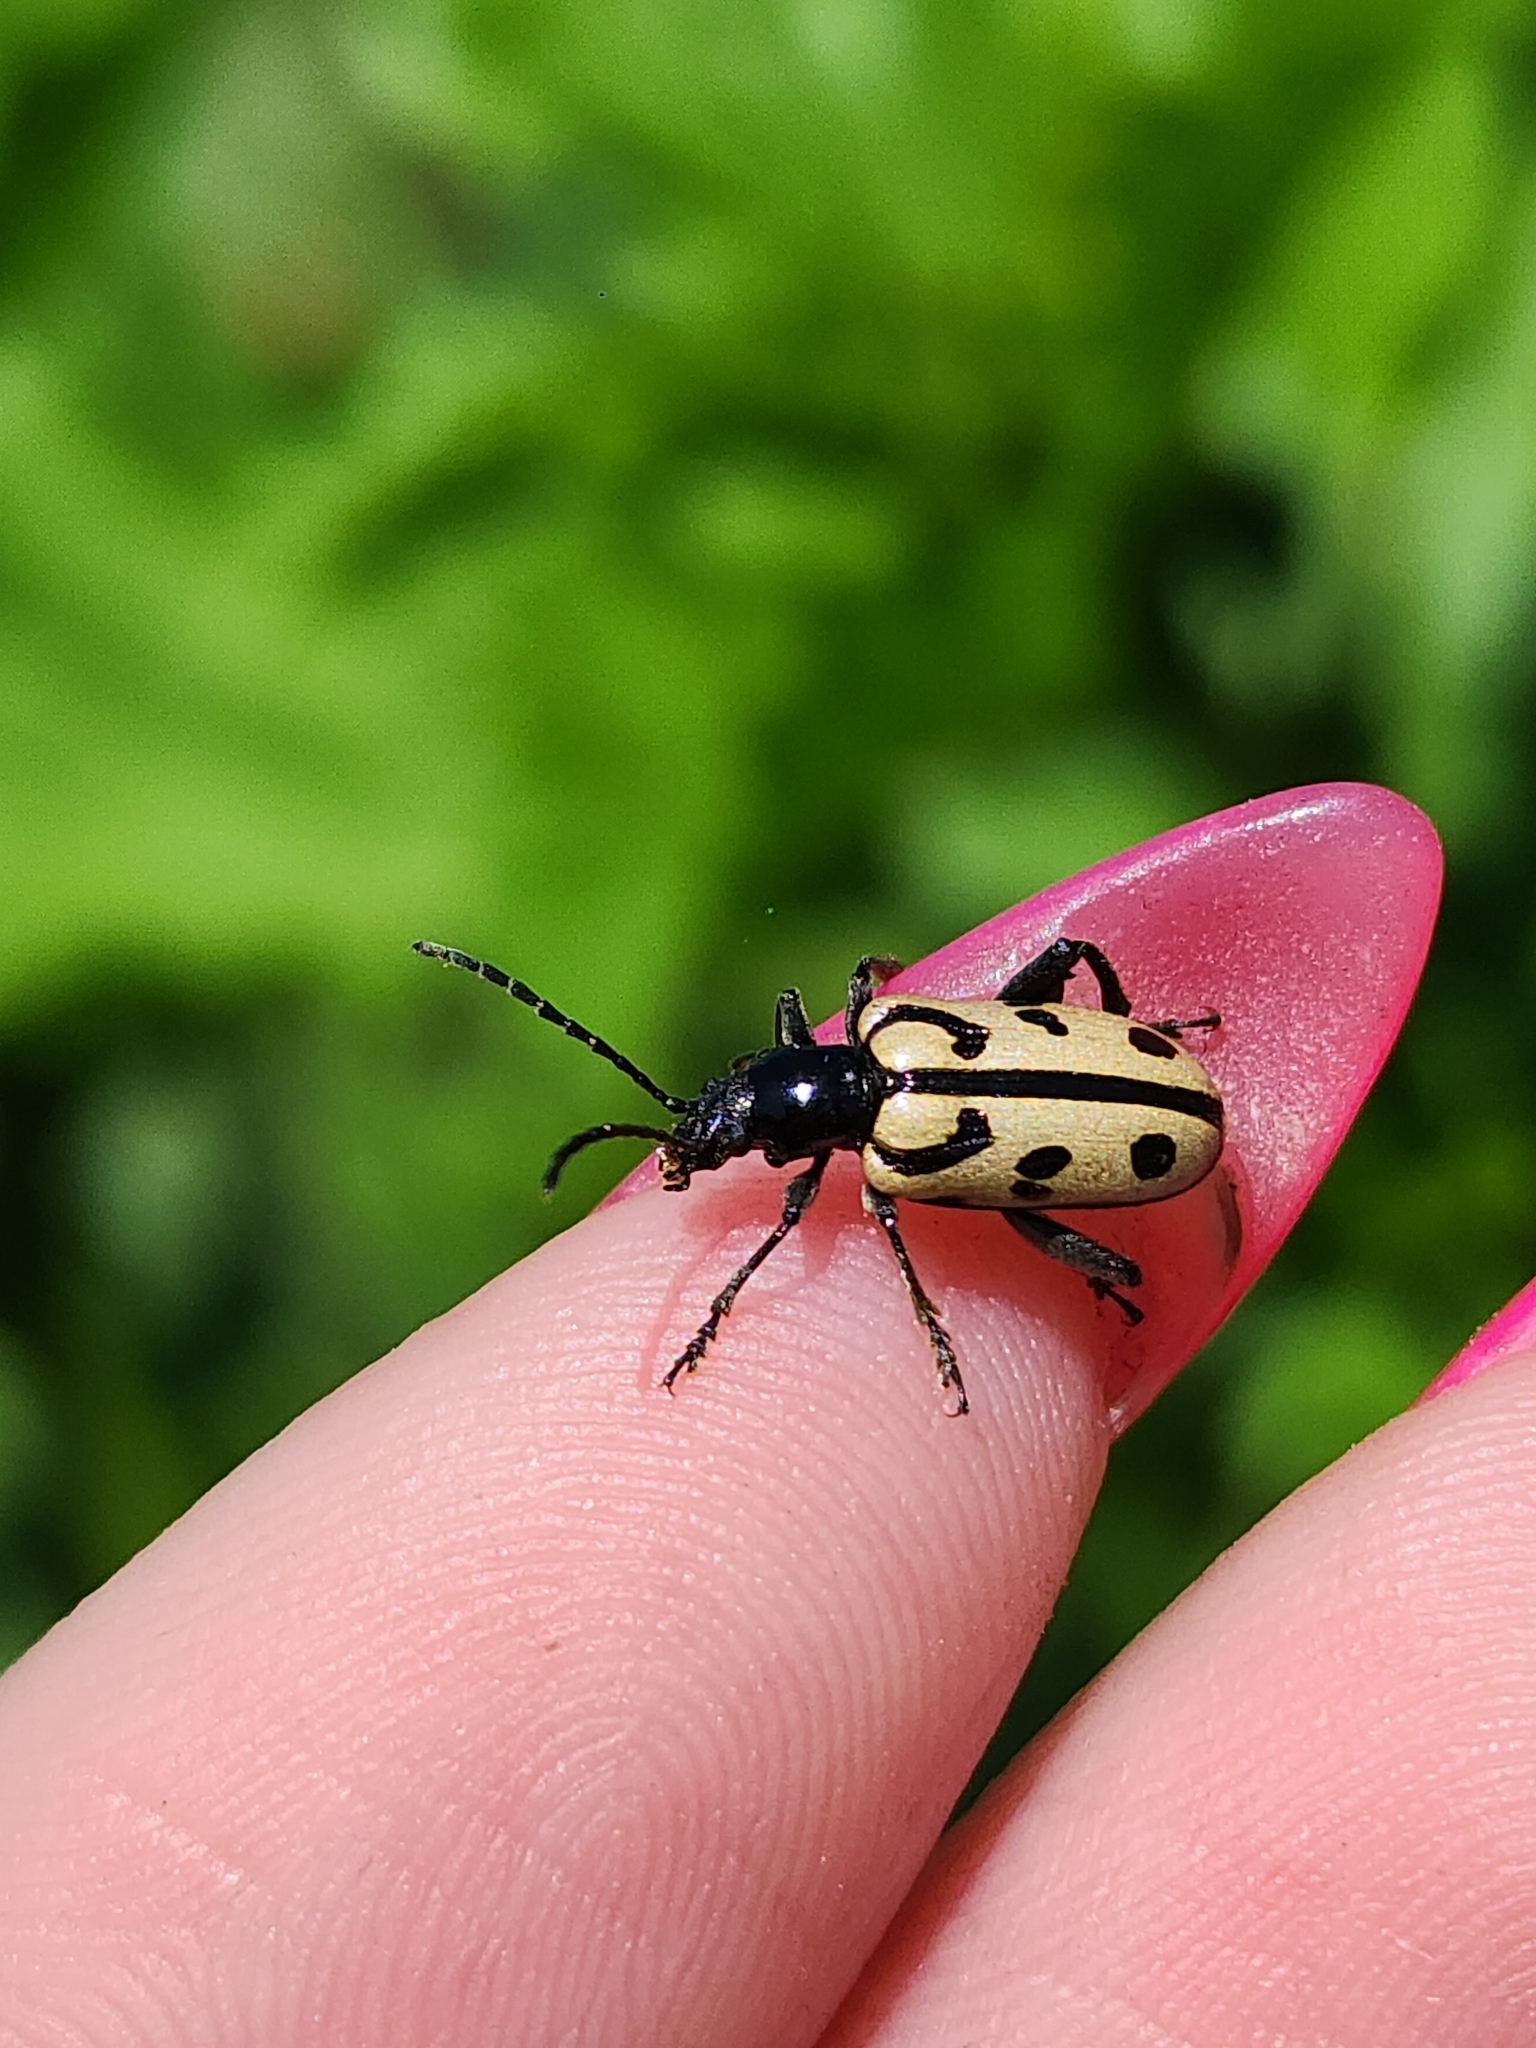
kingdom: Animalia
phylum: Arthropoda
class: Insecta
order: Coleoptera
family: Chrysomelidae
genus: Atalasis
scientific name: Atalasis
